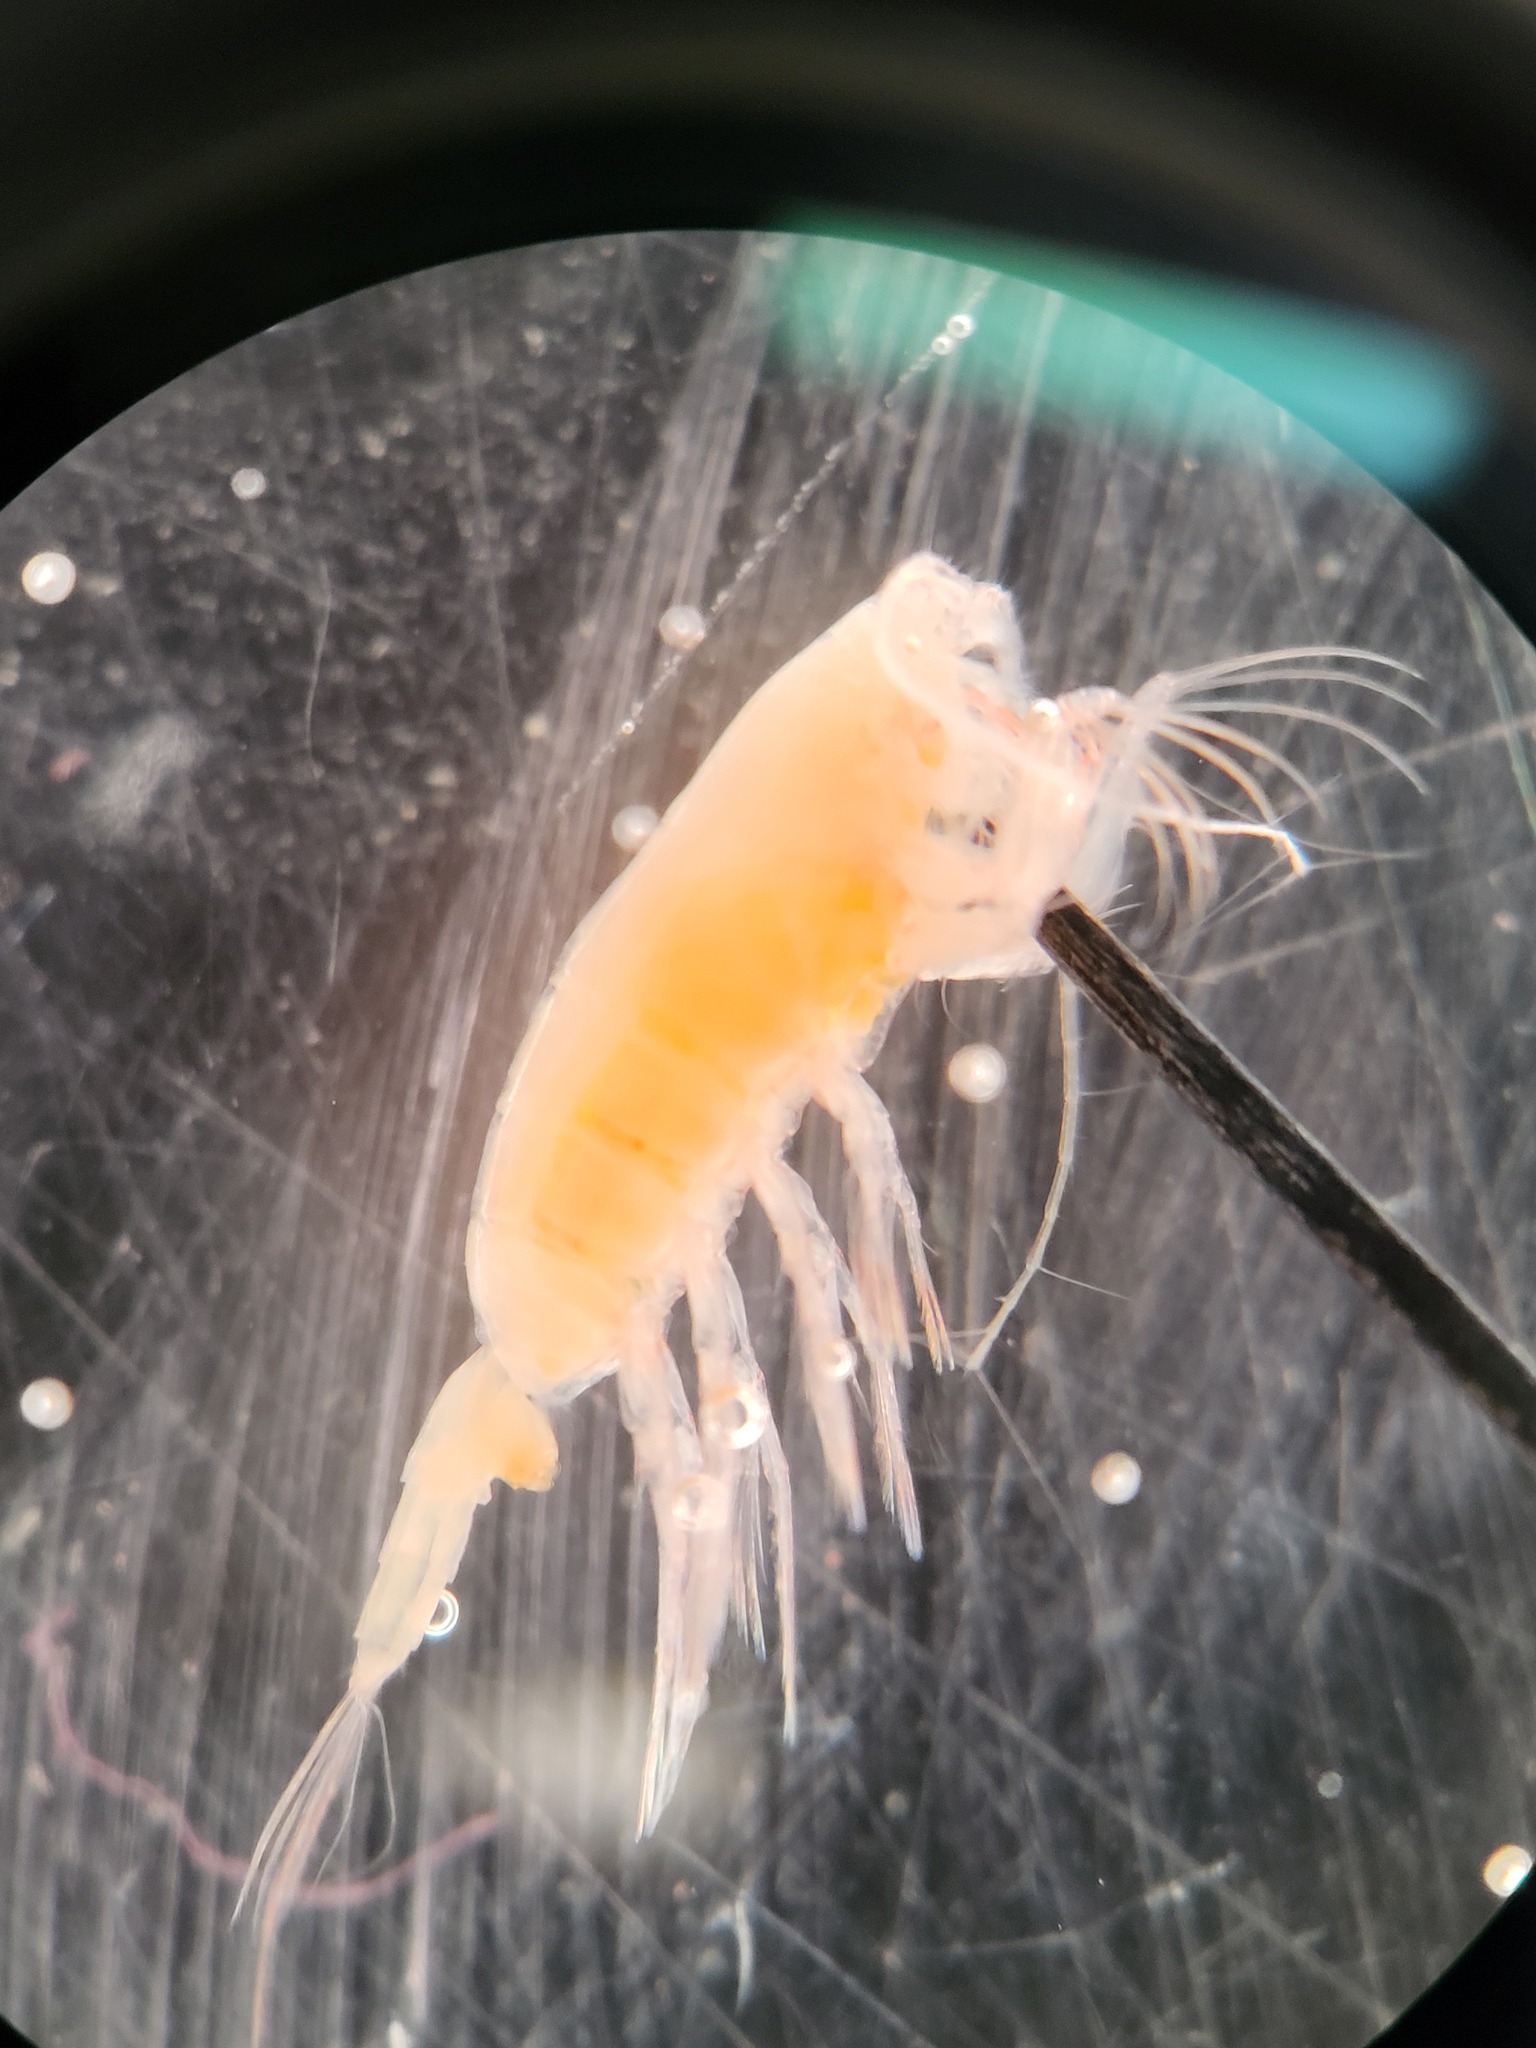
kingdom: Animalia
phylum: Arthropoda
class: Copepoda
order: Calanoida
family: Euchaetidae
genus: Paraeuchaeta
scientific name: Paraeuchaeta glacialis
